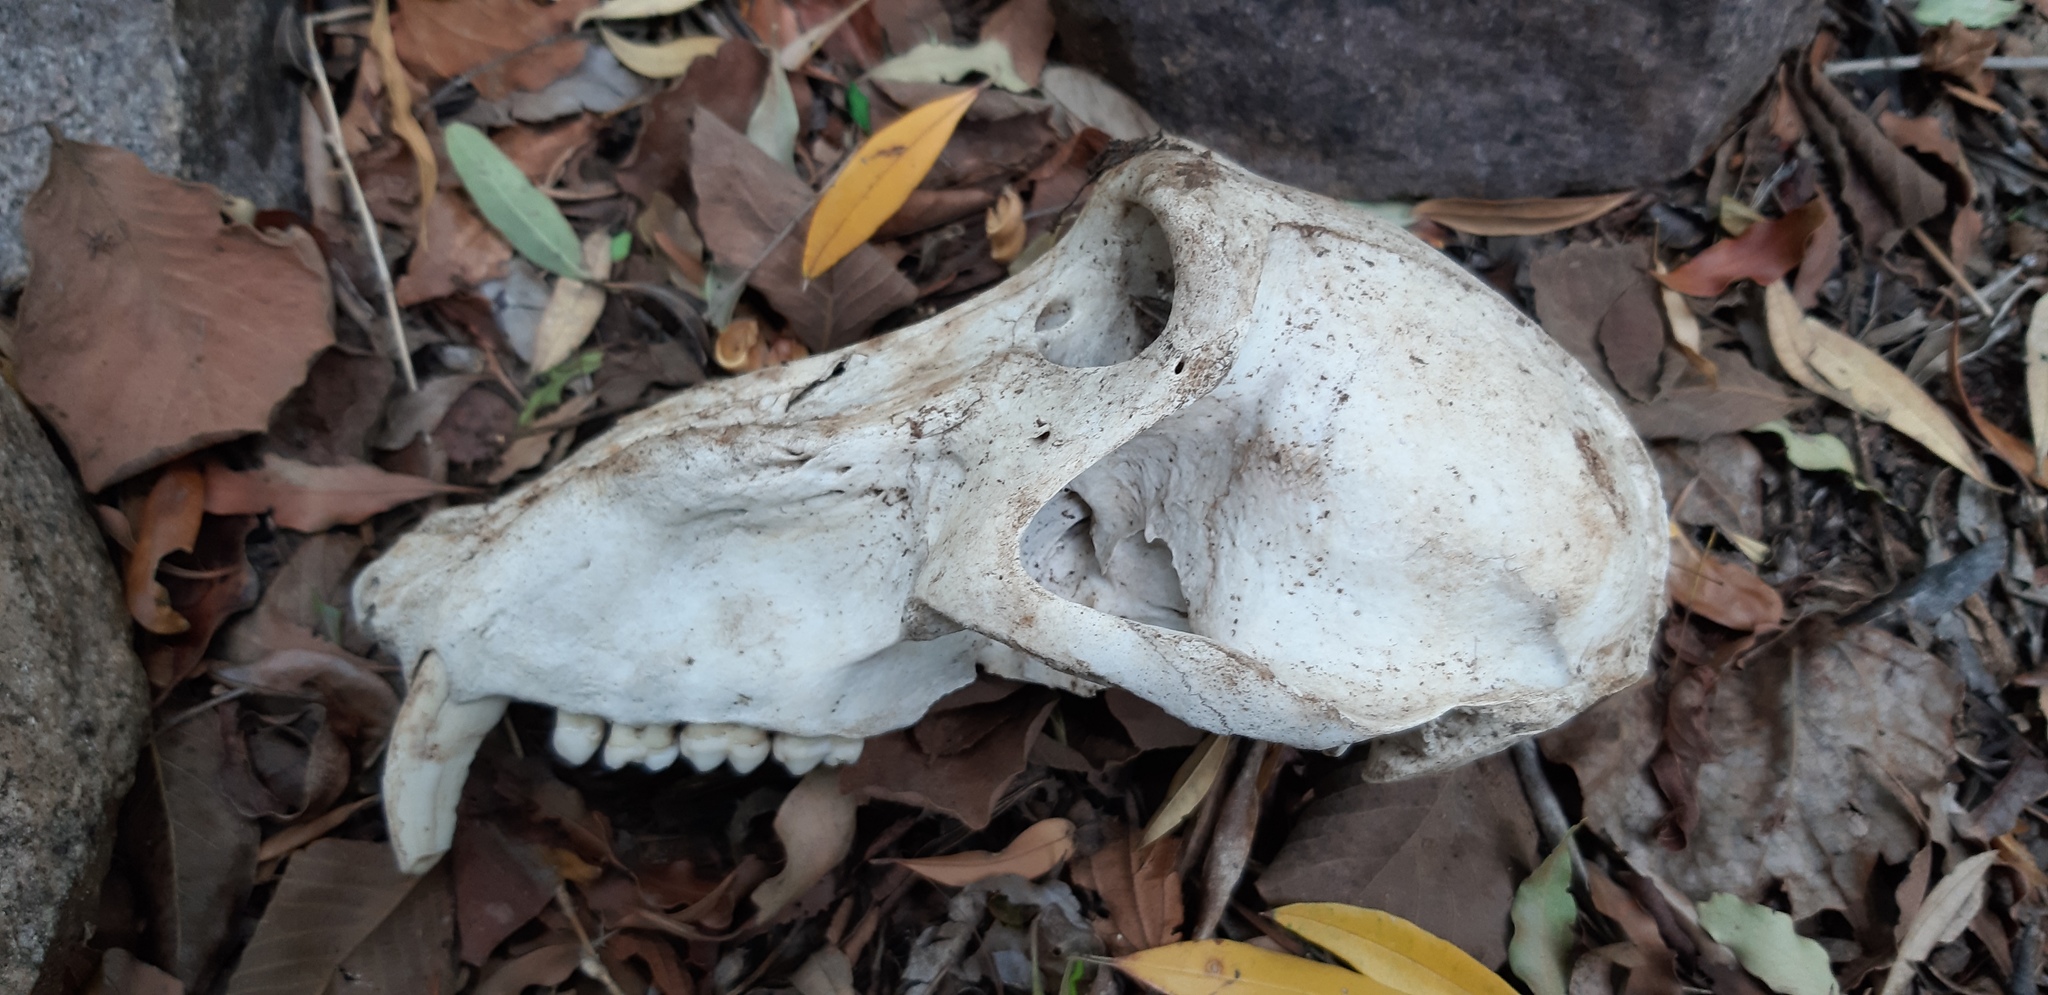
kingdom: Animalia
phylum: Chordata
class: Mammalia
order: Primates
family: Cercopithecidae
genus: Papio
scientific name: Papio ursinus
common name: Chacma baboon
